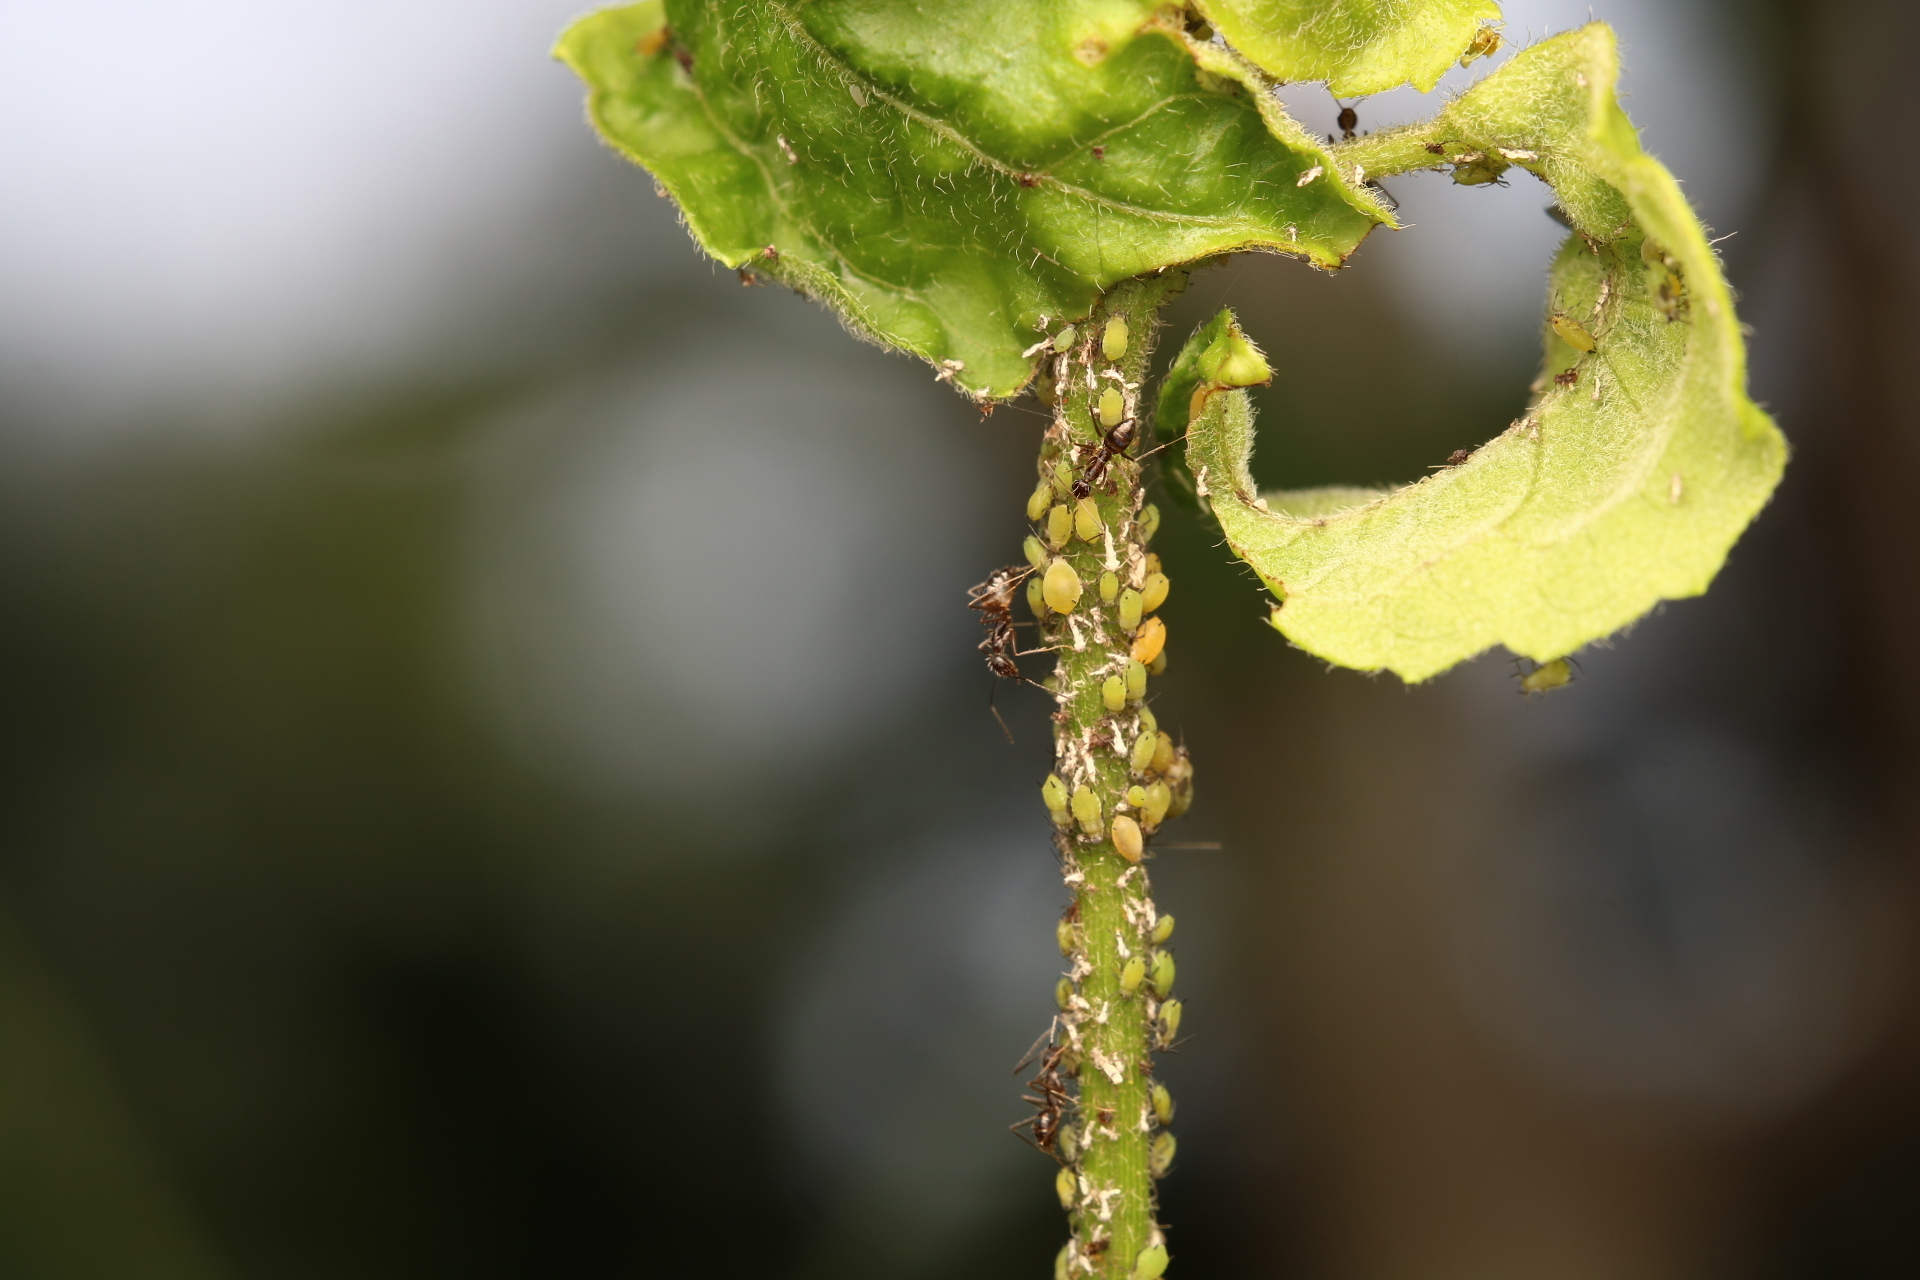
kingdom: Animalia
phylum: Arthropoda
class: Insecta
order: Hymenoptera
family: Formicidae
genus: Paratrechina
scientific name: Paratrechina longicornis
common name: Longhorned crazy ant
